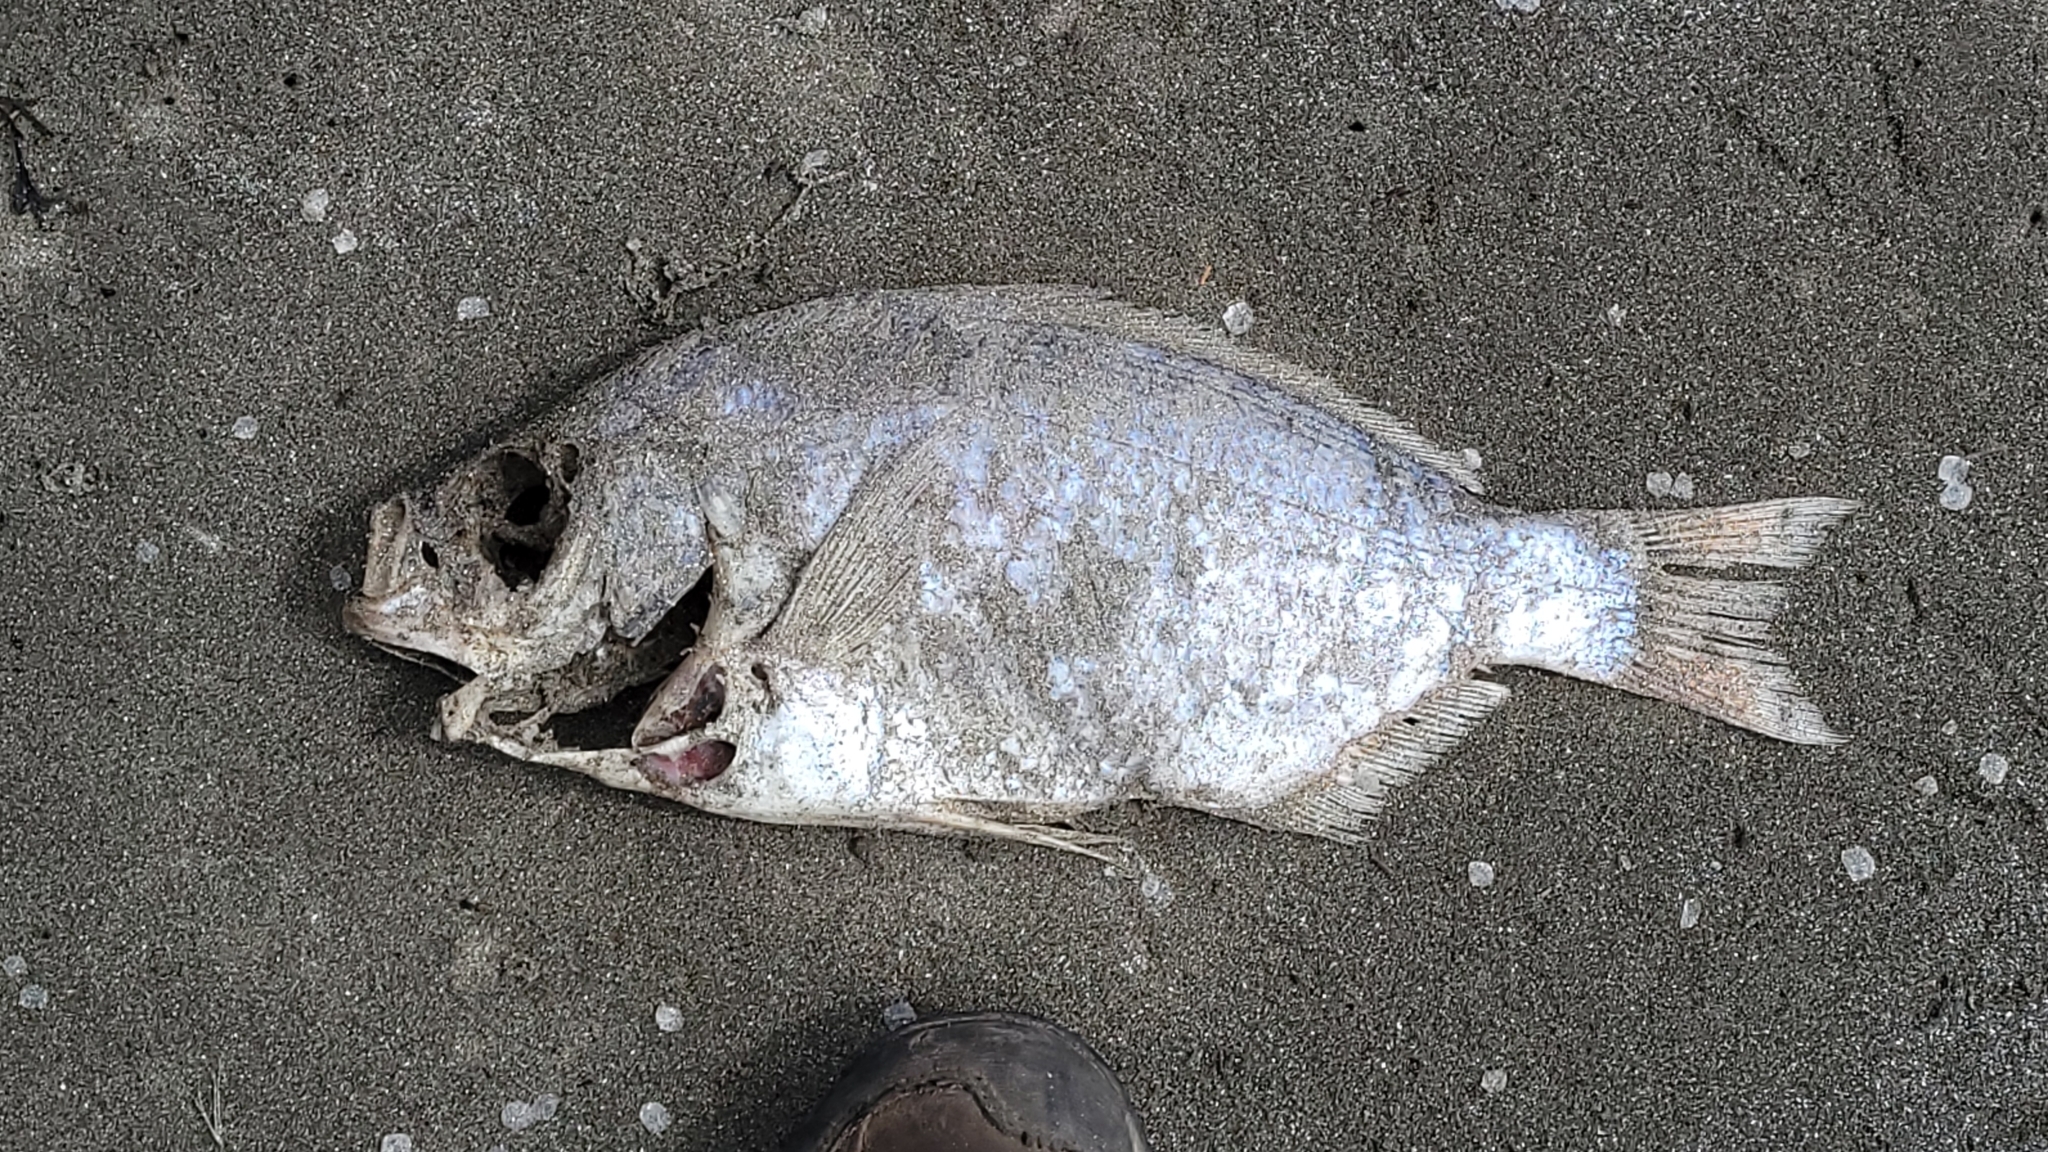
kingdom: Animalia
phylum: Chordata
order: Perciformes
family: Embiotocidae
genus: Amphistichus
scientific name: Amphistichus rhodoterus
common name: Redtail surfperch
